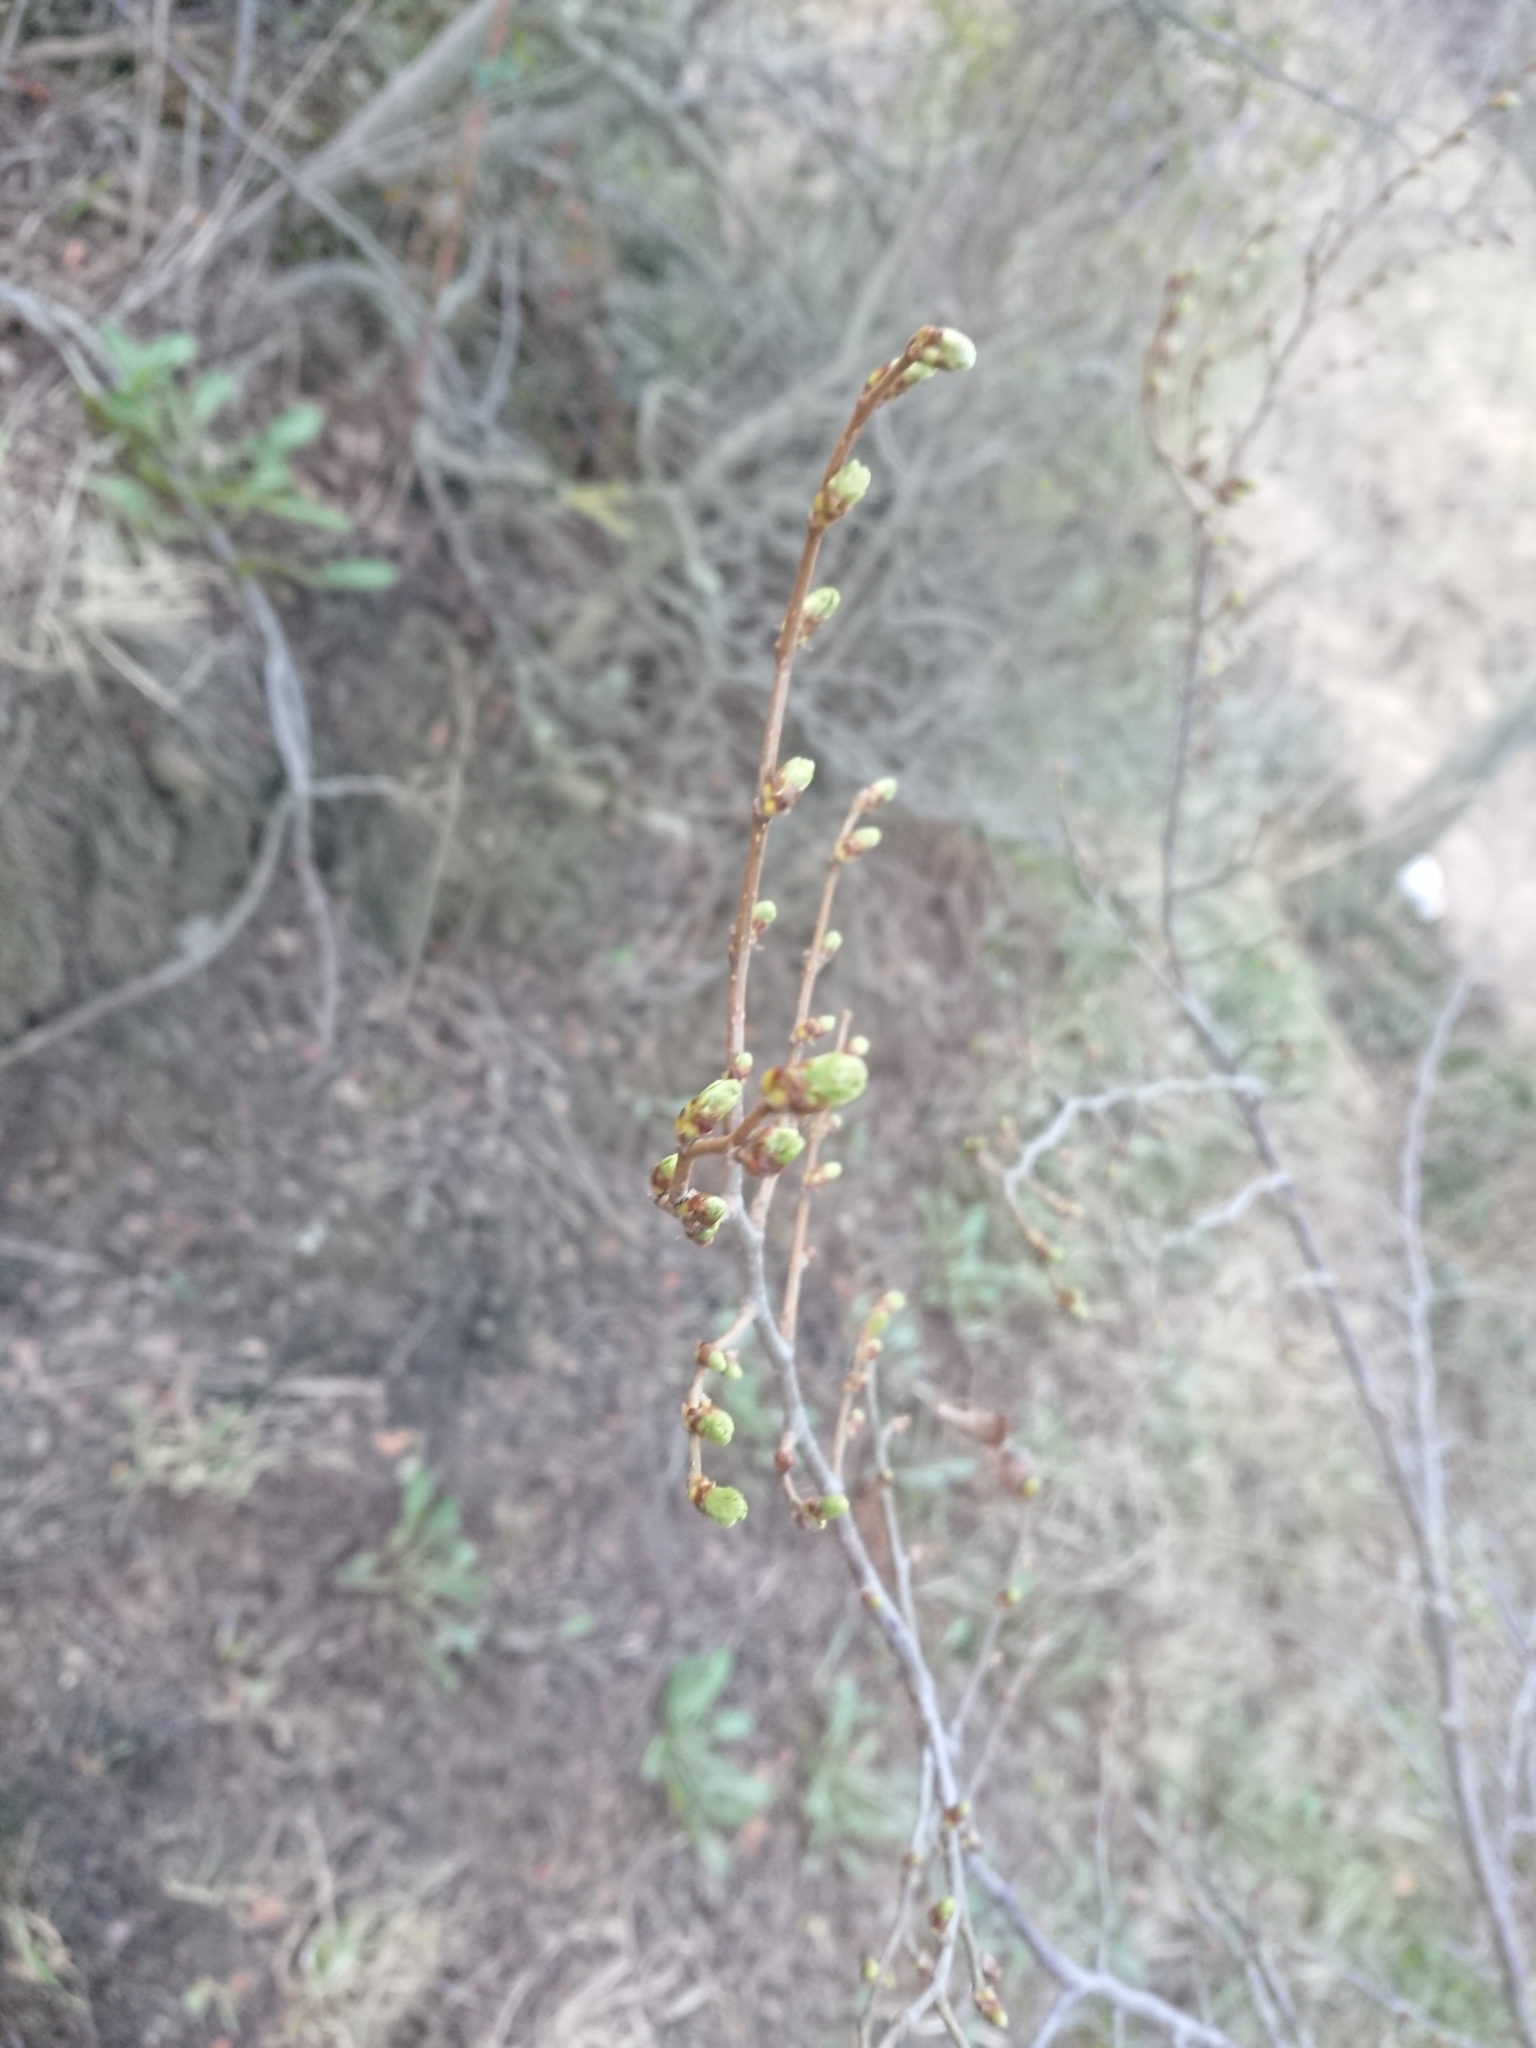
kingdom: Plantae
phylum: Tracheophyta
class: Magnoliopsida
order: Fagales
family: Nothofagaceae
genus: Nothofagus
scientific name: Nothofagus pumilio
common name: Lenga beech
